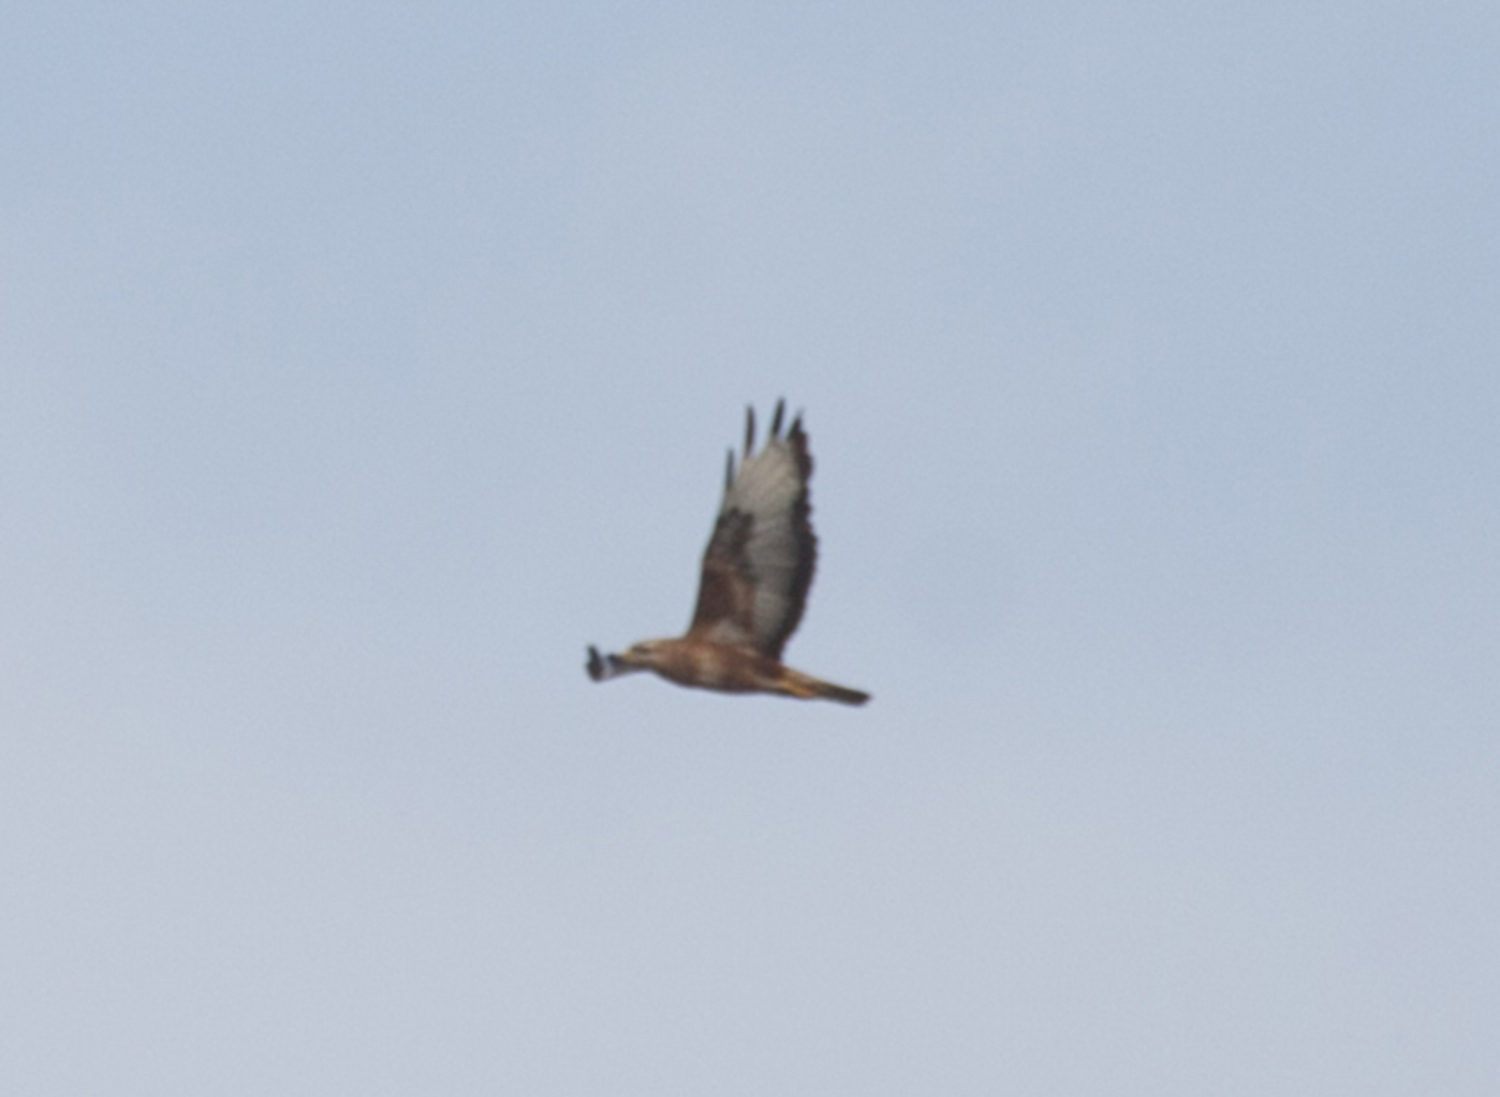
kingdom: Animalia
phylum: Chordata
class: Aves
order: Accipitriformes
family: Accipitridae
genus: Buteo
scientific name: Buteo buteo
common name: Common buzzard
